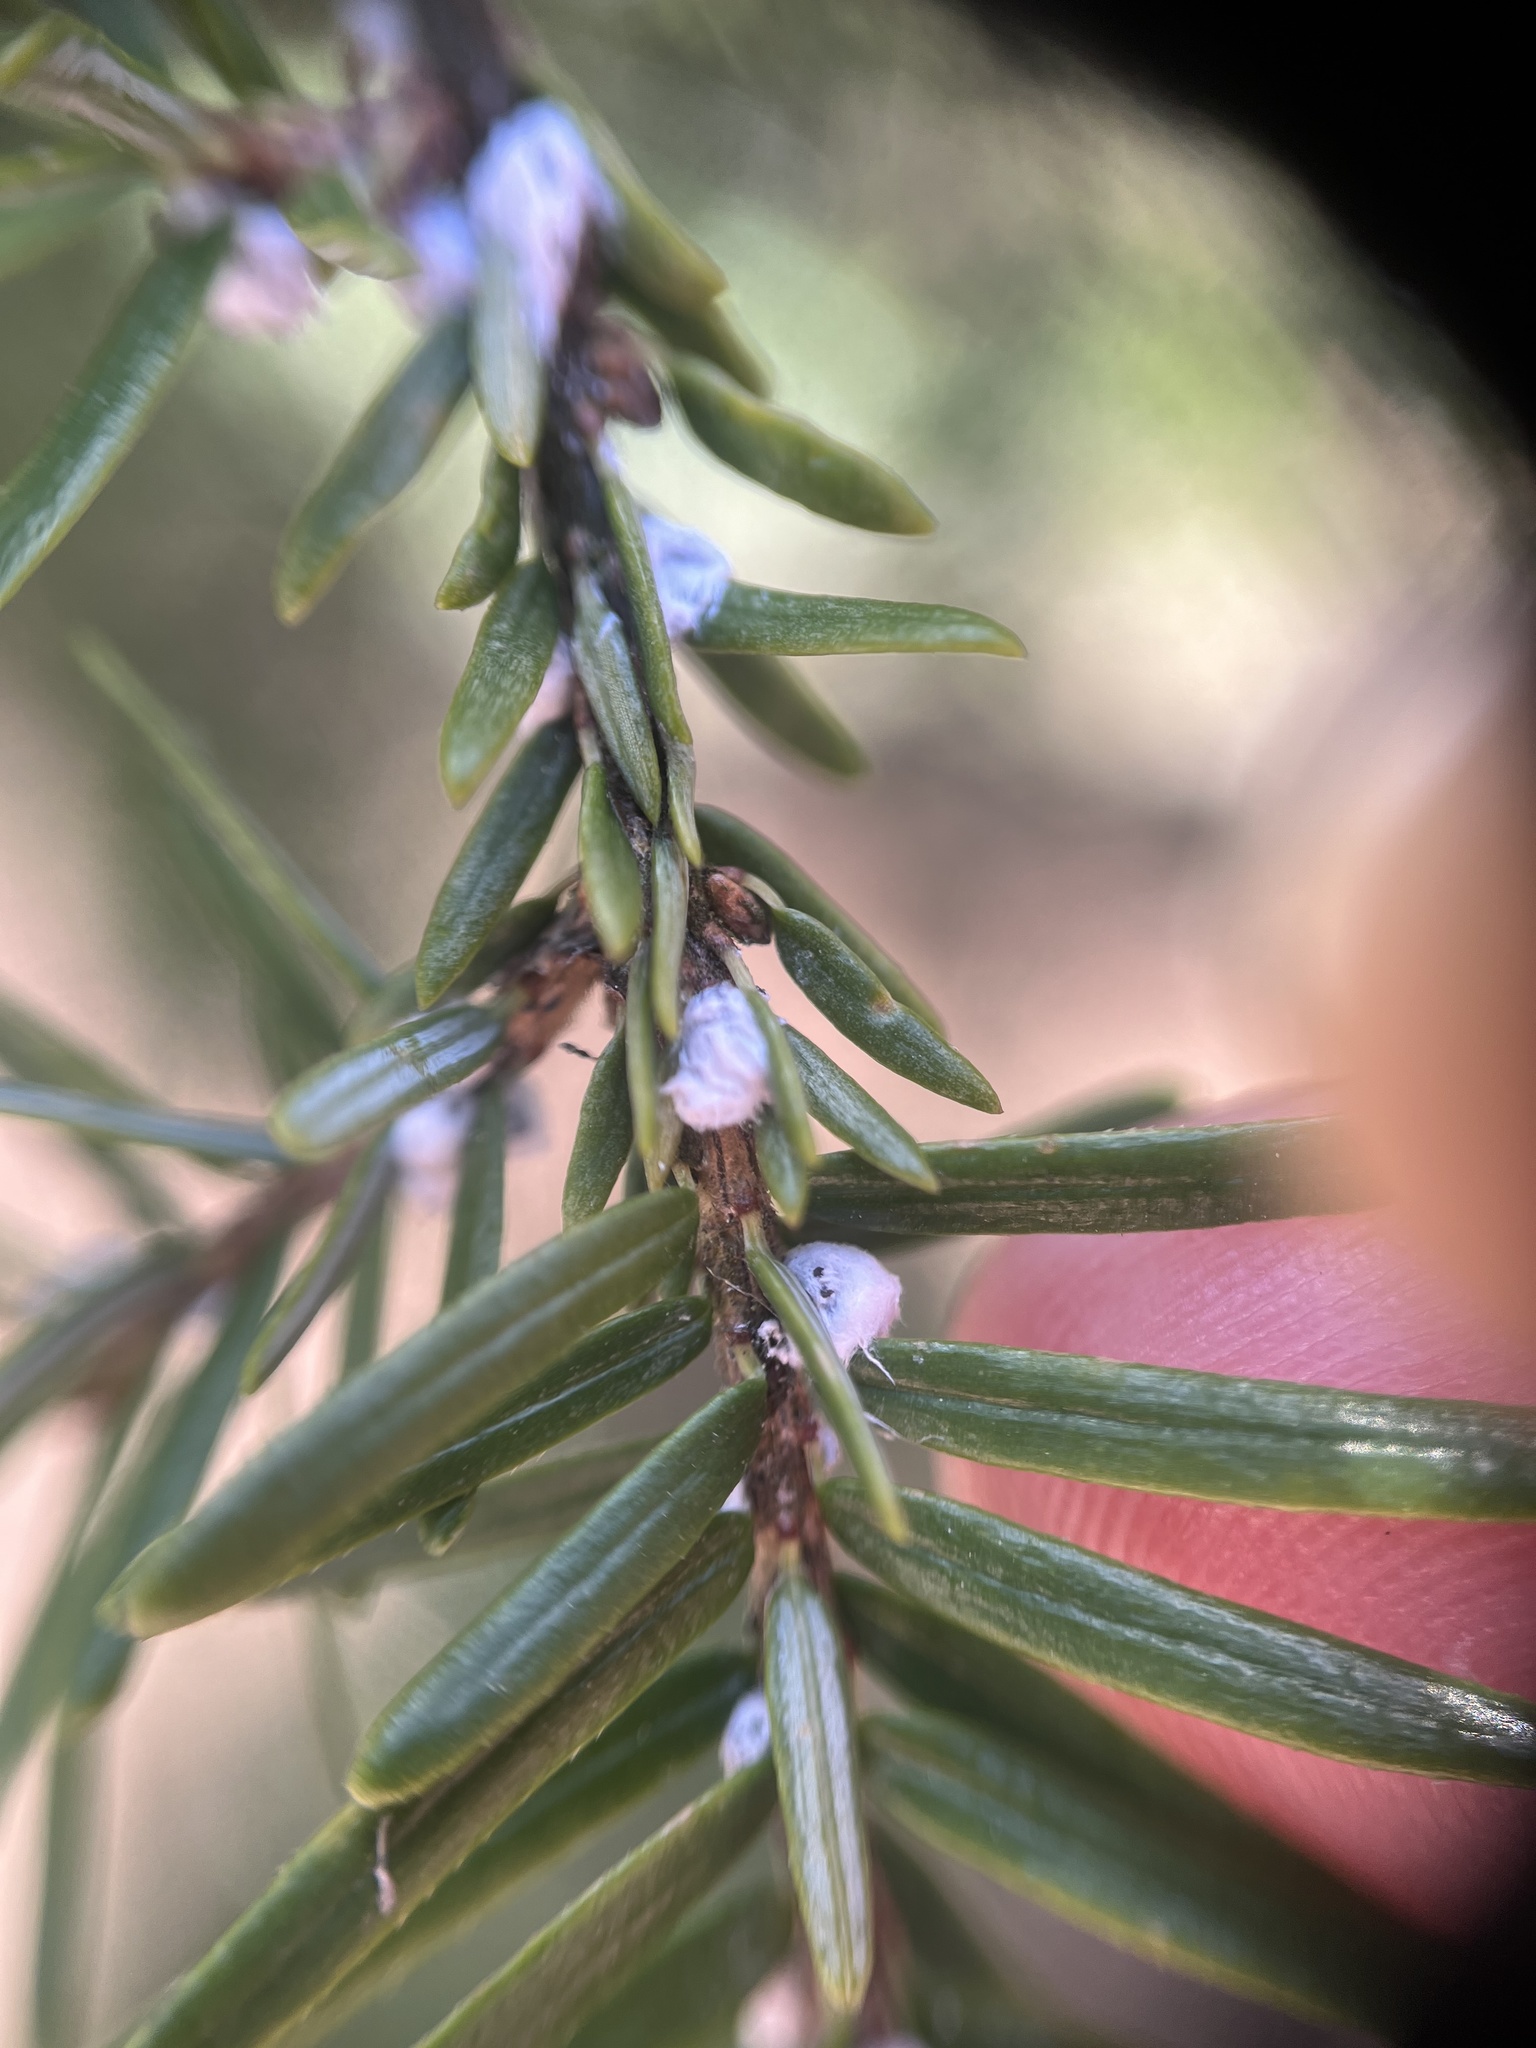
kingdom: Animalia
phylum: Arthropoda
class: Insecta
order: Hemiptera
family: Adelgidae
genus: Adelges
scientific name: Adelges tsugae
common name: Hemlock woolly adelgid
